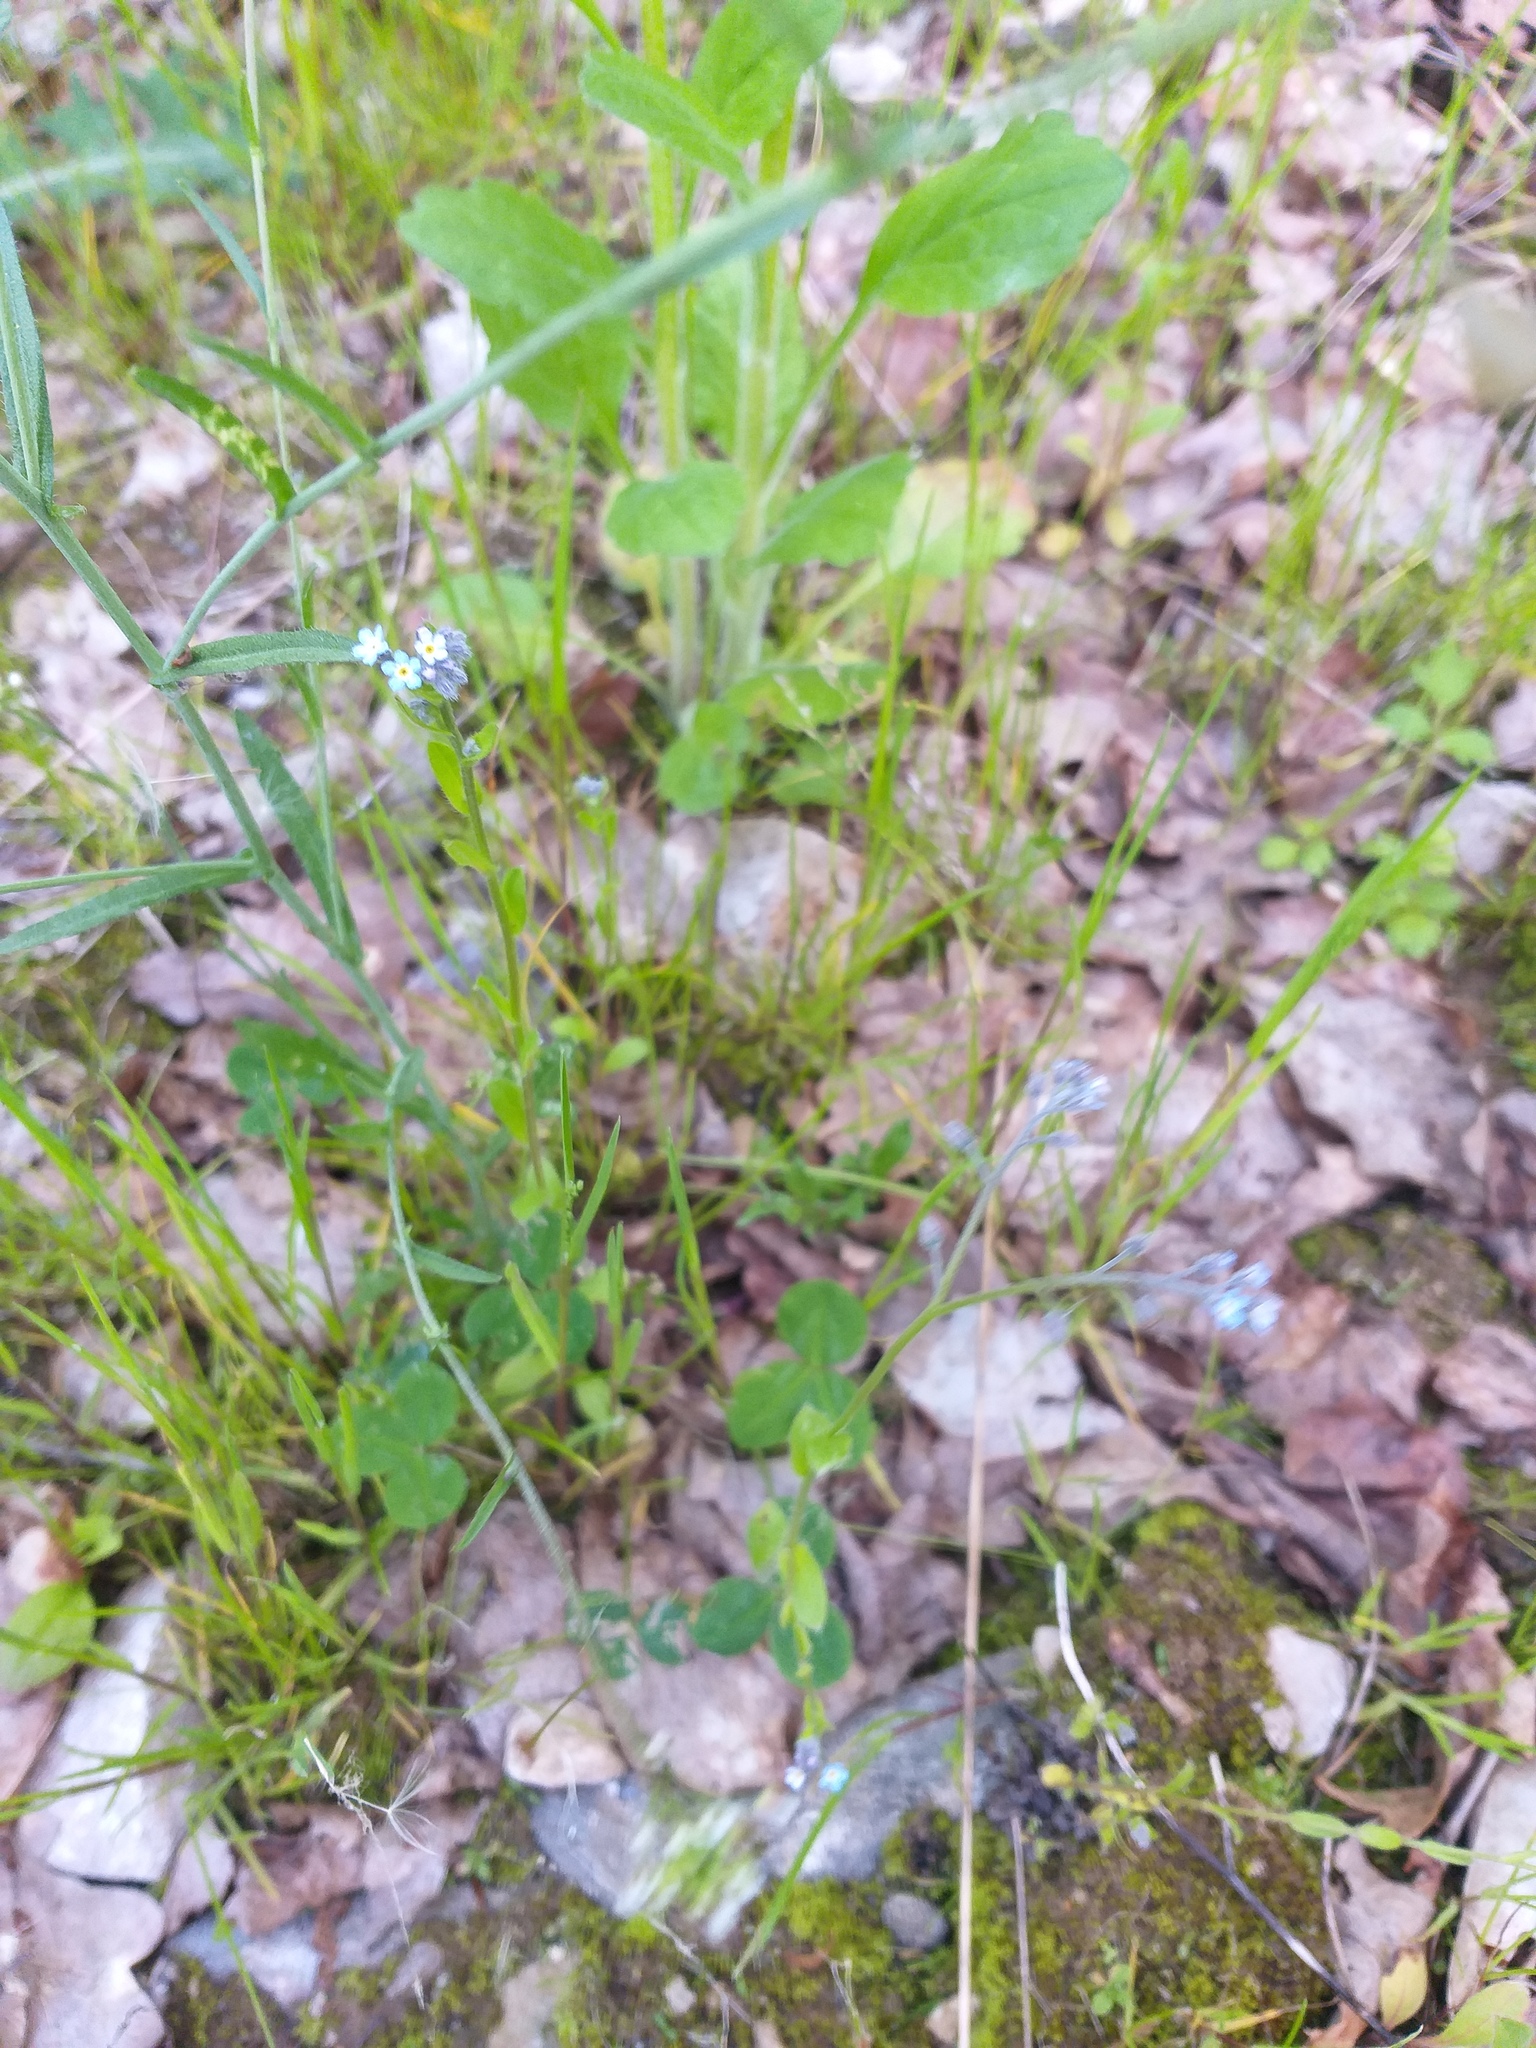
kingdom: Plantae
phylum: Tracheophyta
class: Magnoliopsida
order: Boraginales
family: Boraginaceae
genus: Myosotis
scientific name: Myosotis arvensis
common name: Field forget-me-not
